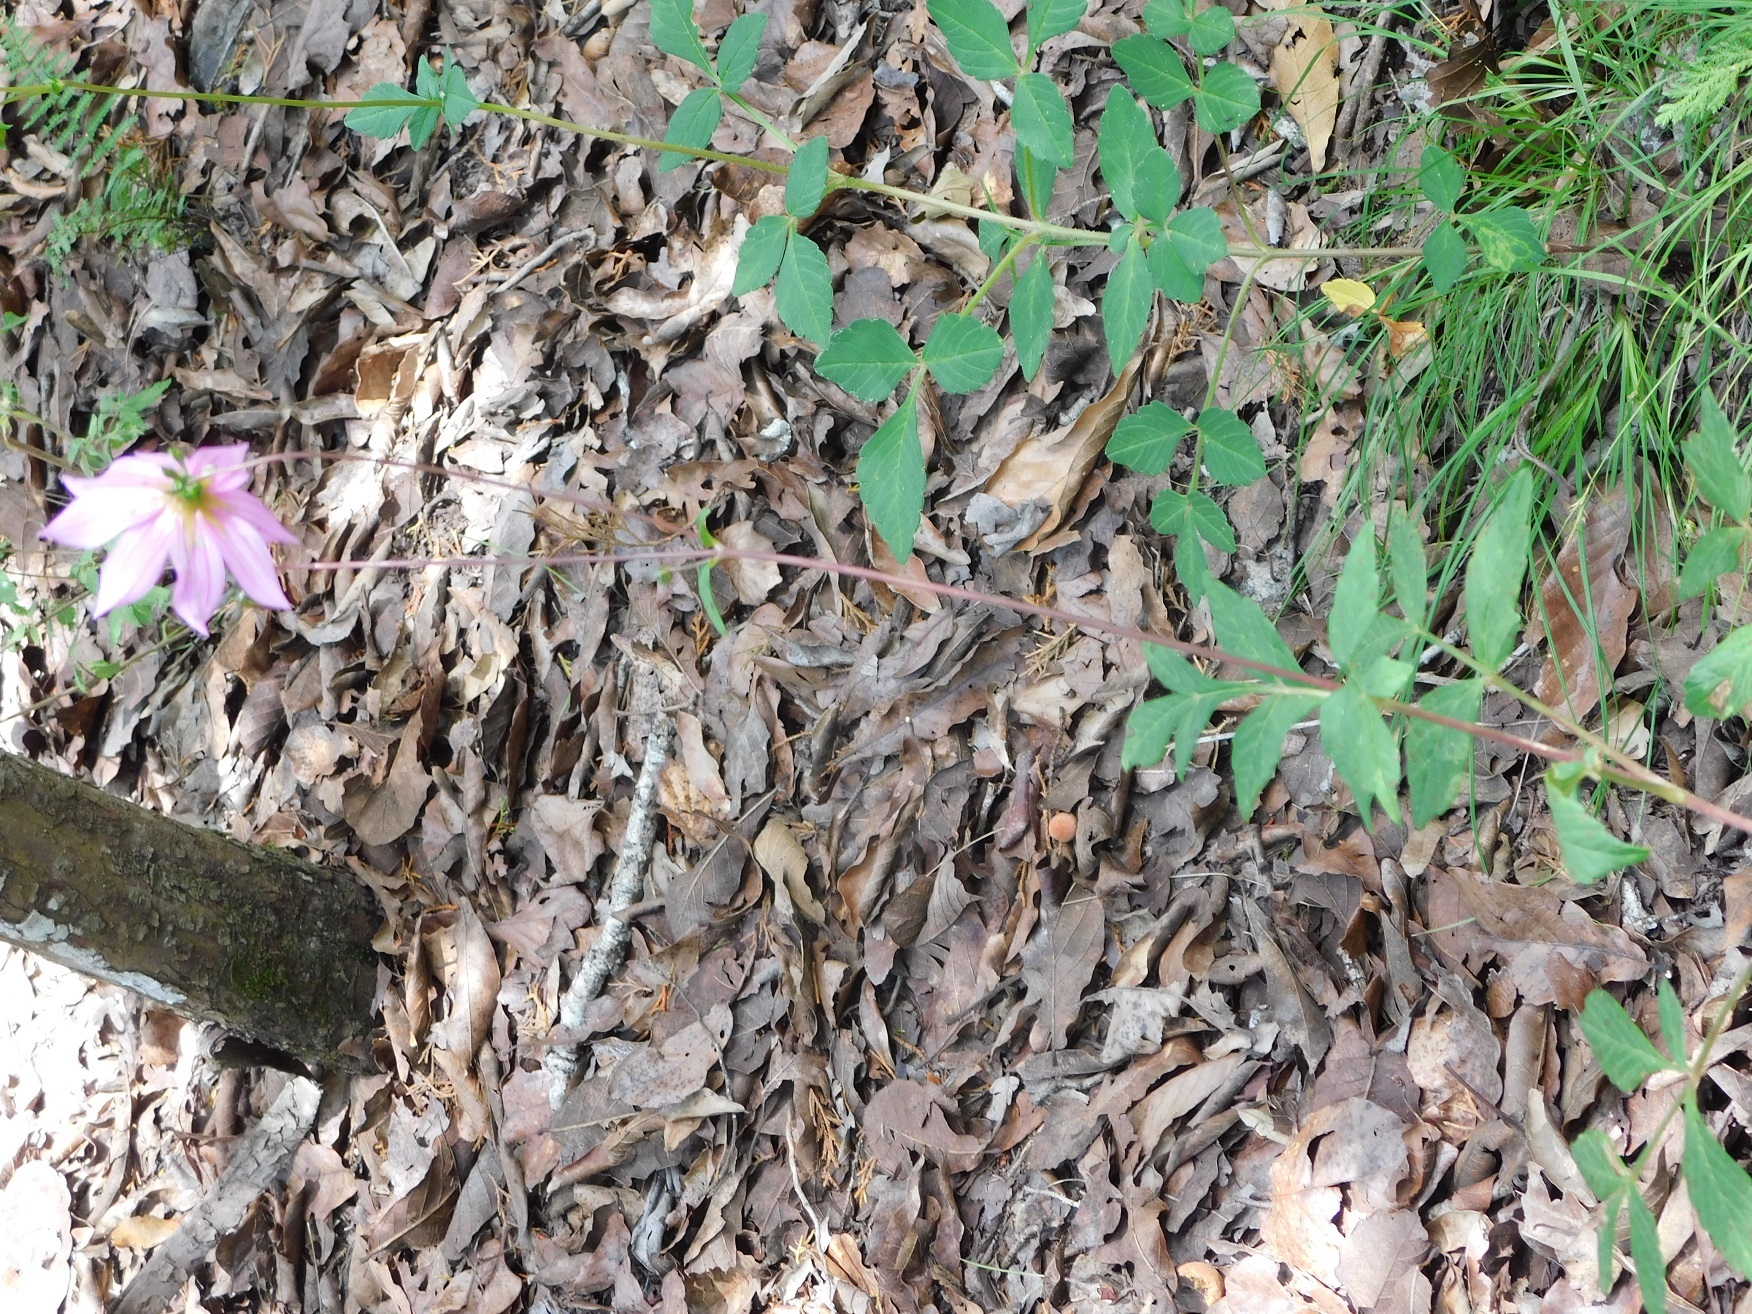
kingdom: Plantae
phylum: Tracheophyta
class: Magnoliopsida
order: Asterales
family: Asteraceae
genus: Dahlia
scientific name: Dahlia australis
